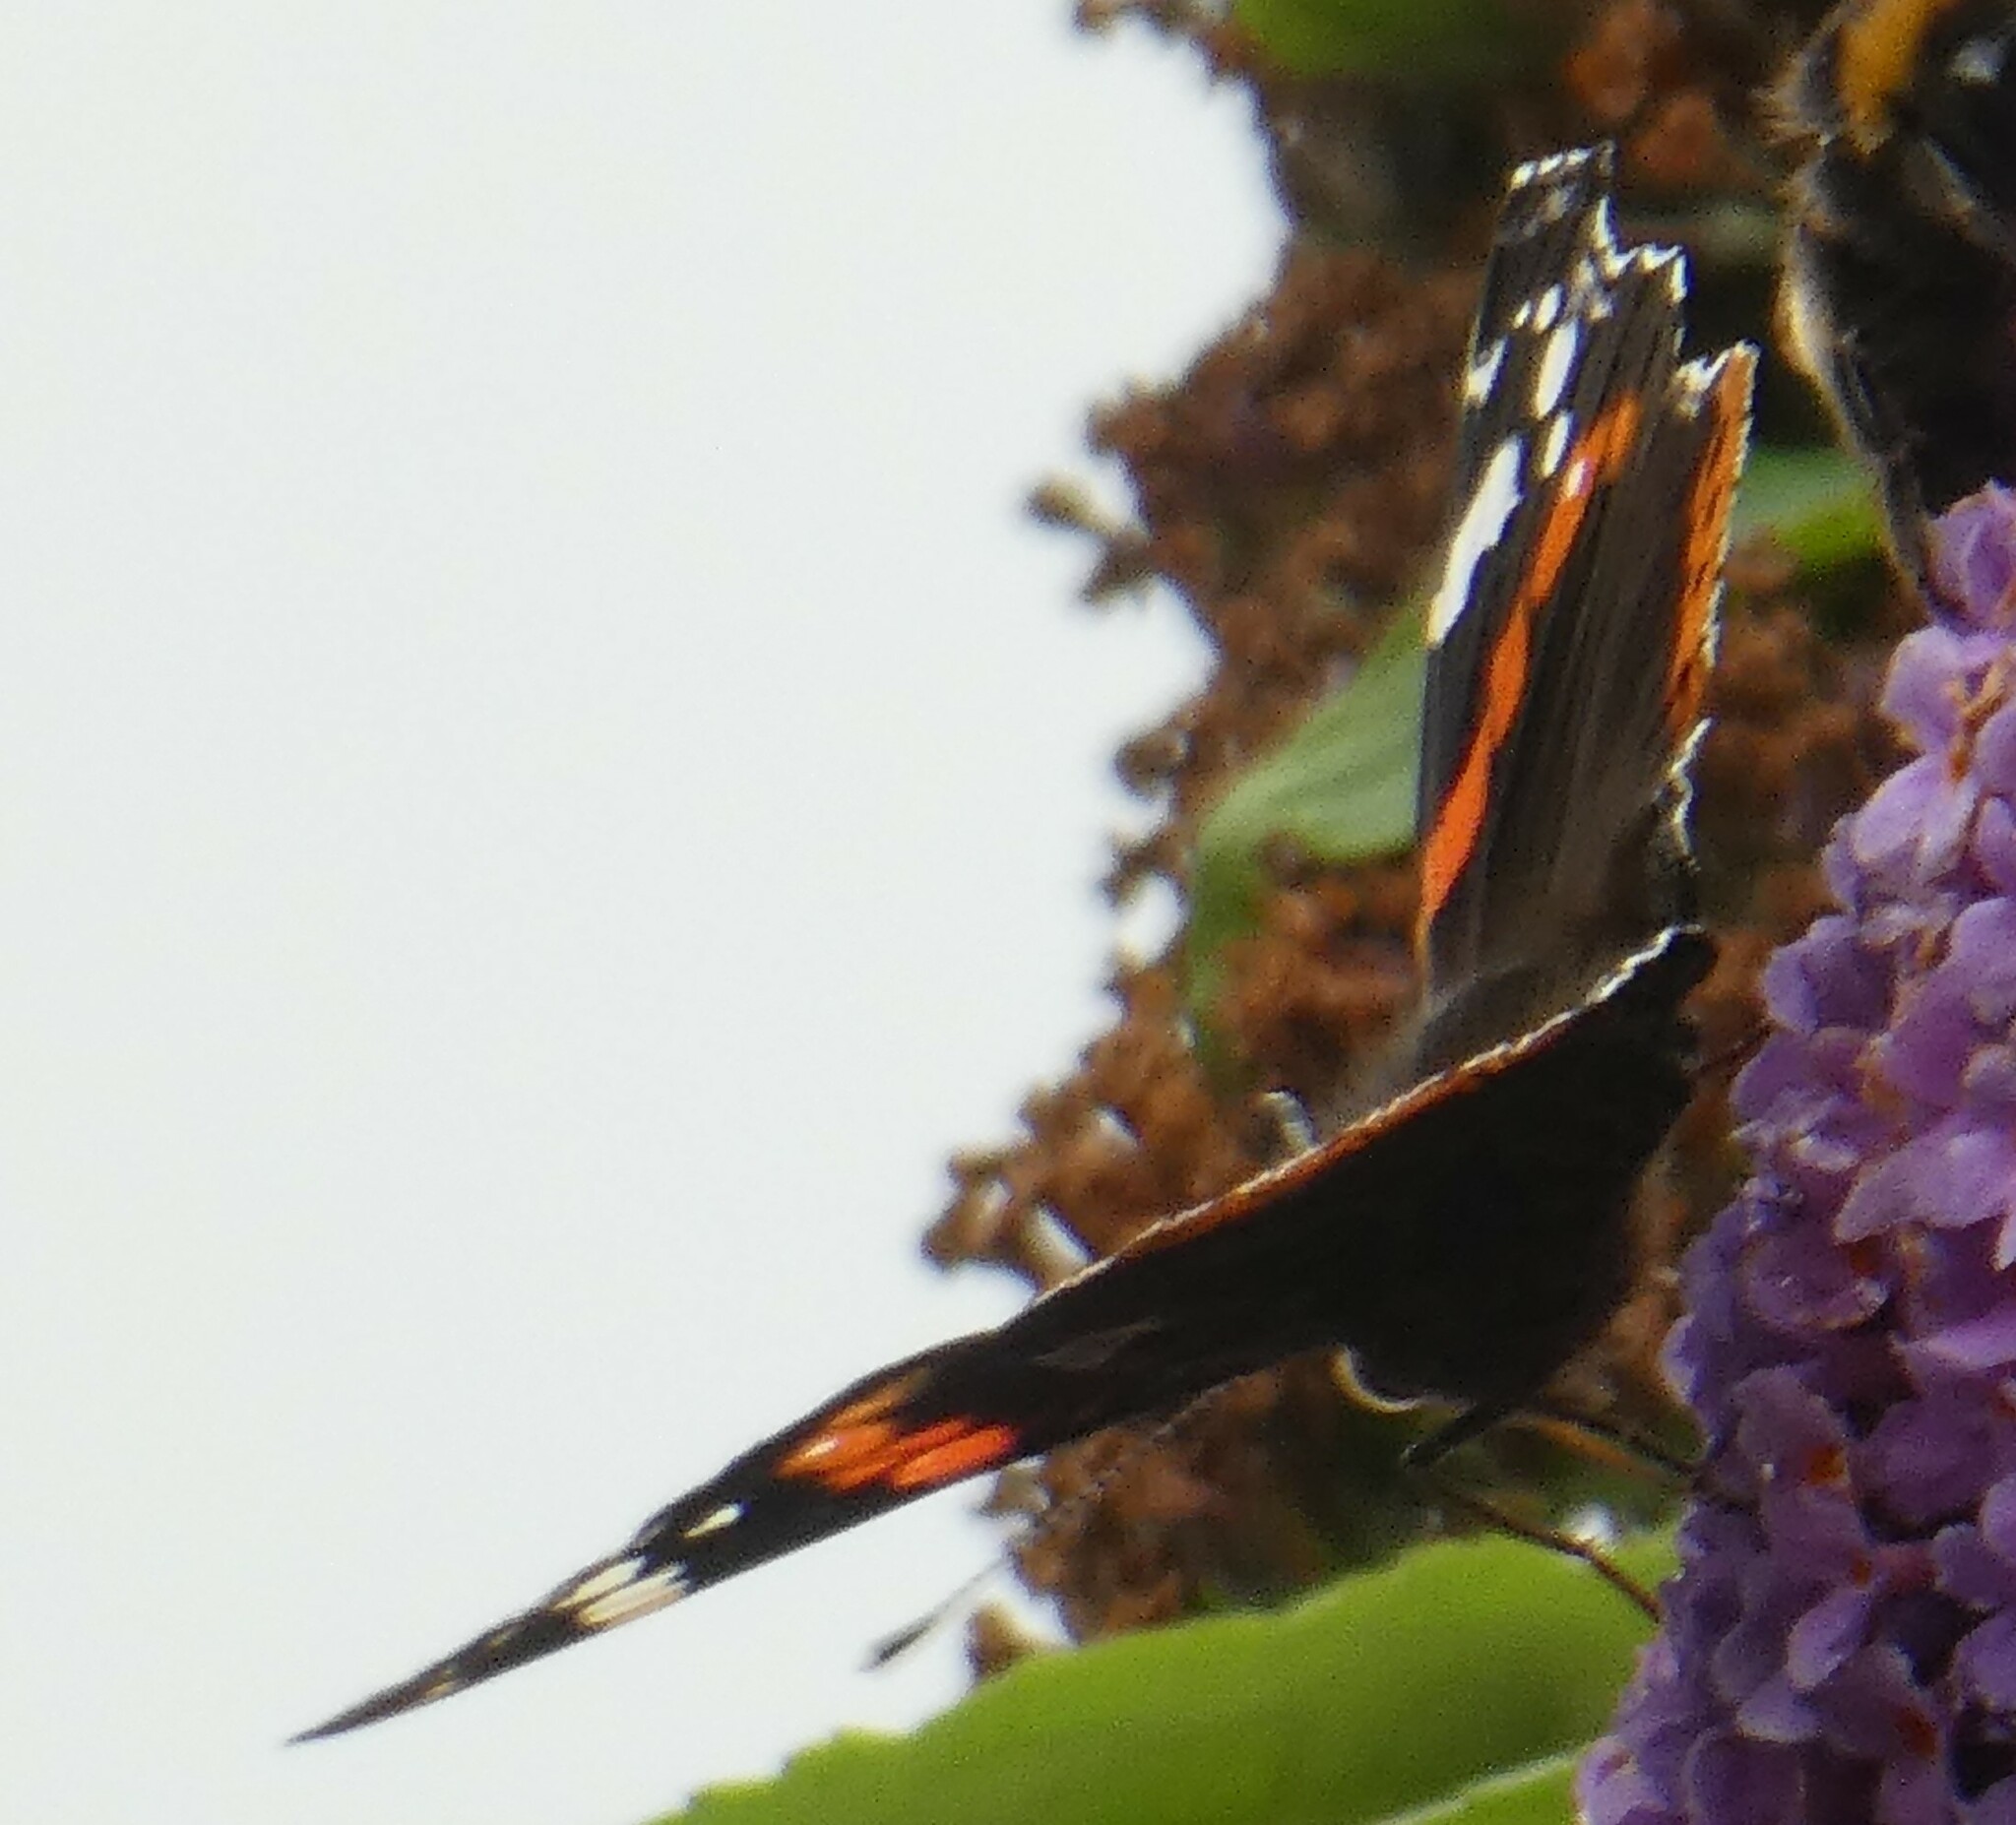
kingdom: Animalia
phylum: Arthropoda
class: Insecta
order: Lepidoptera
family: Nymphalidae
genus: Vanessa
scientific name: Vanessa atalanta
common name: Red admiral
